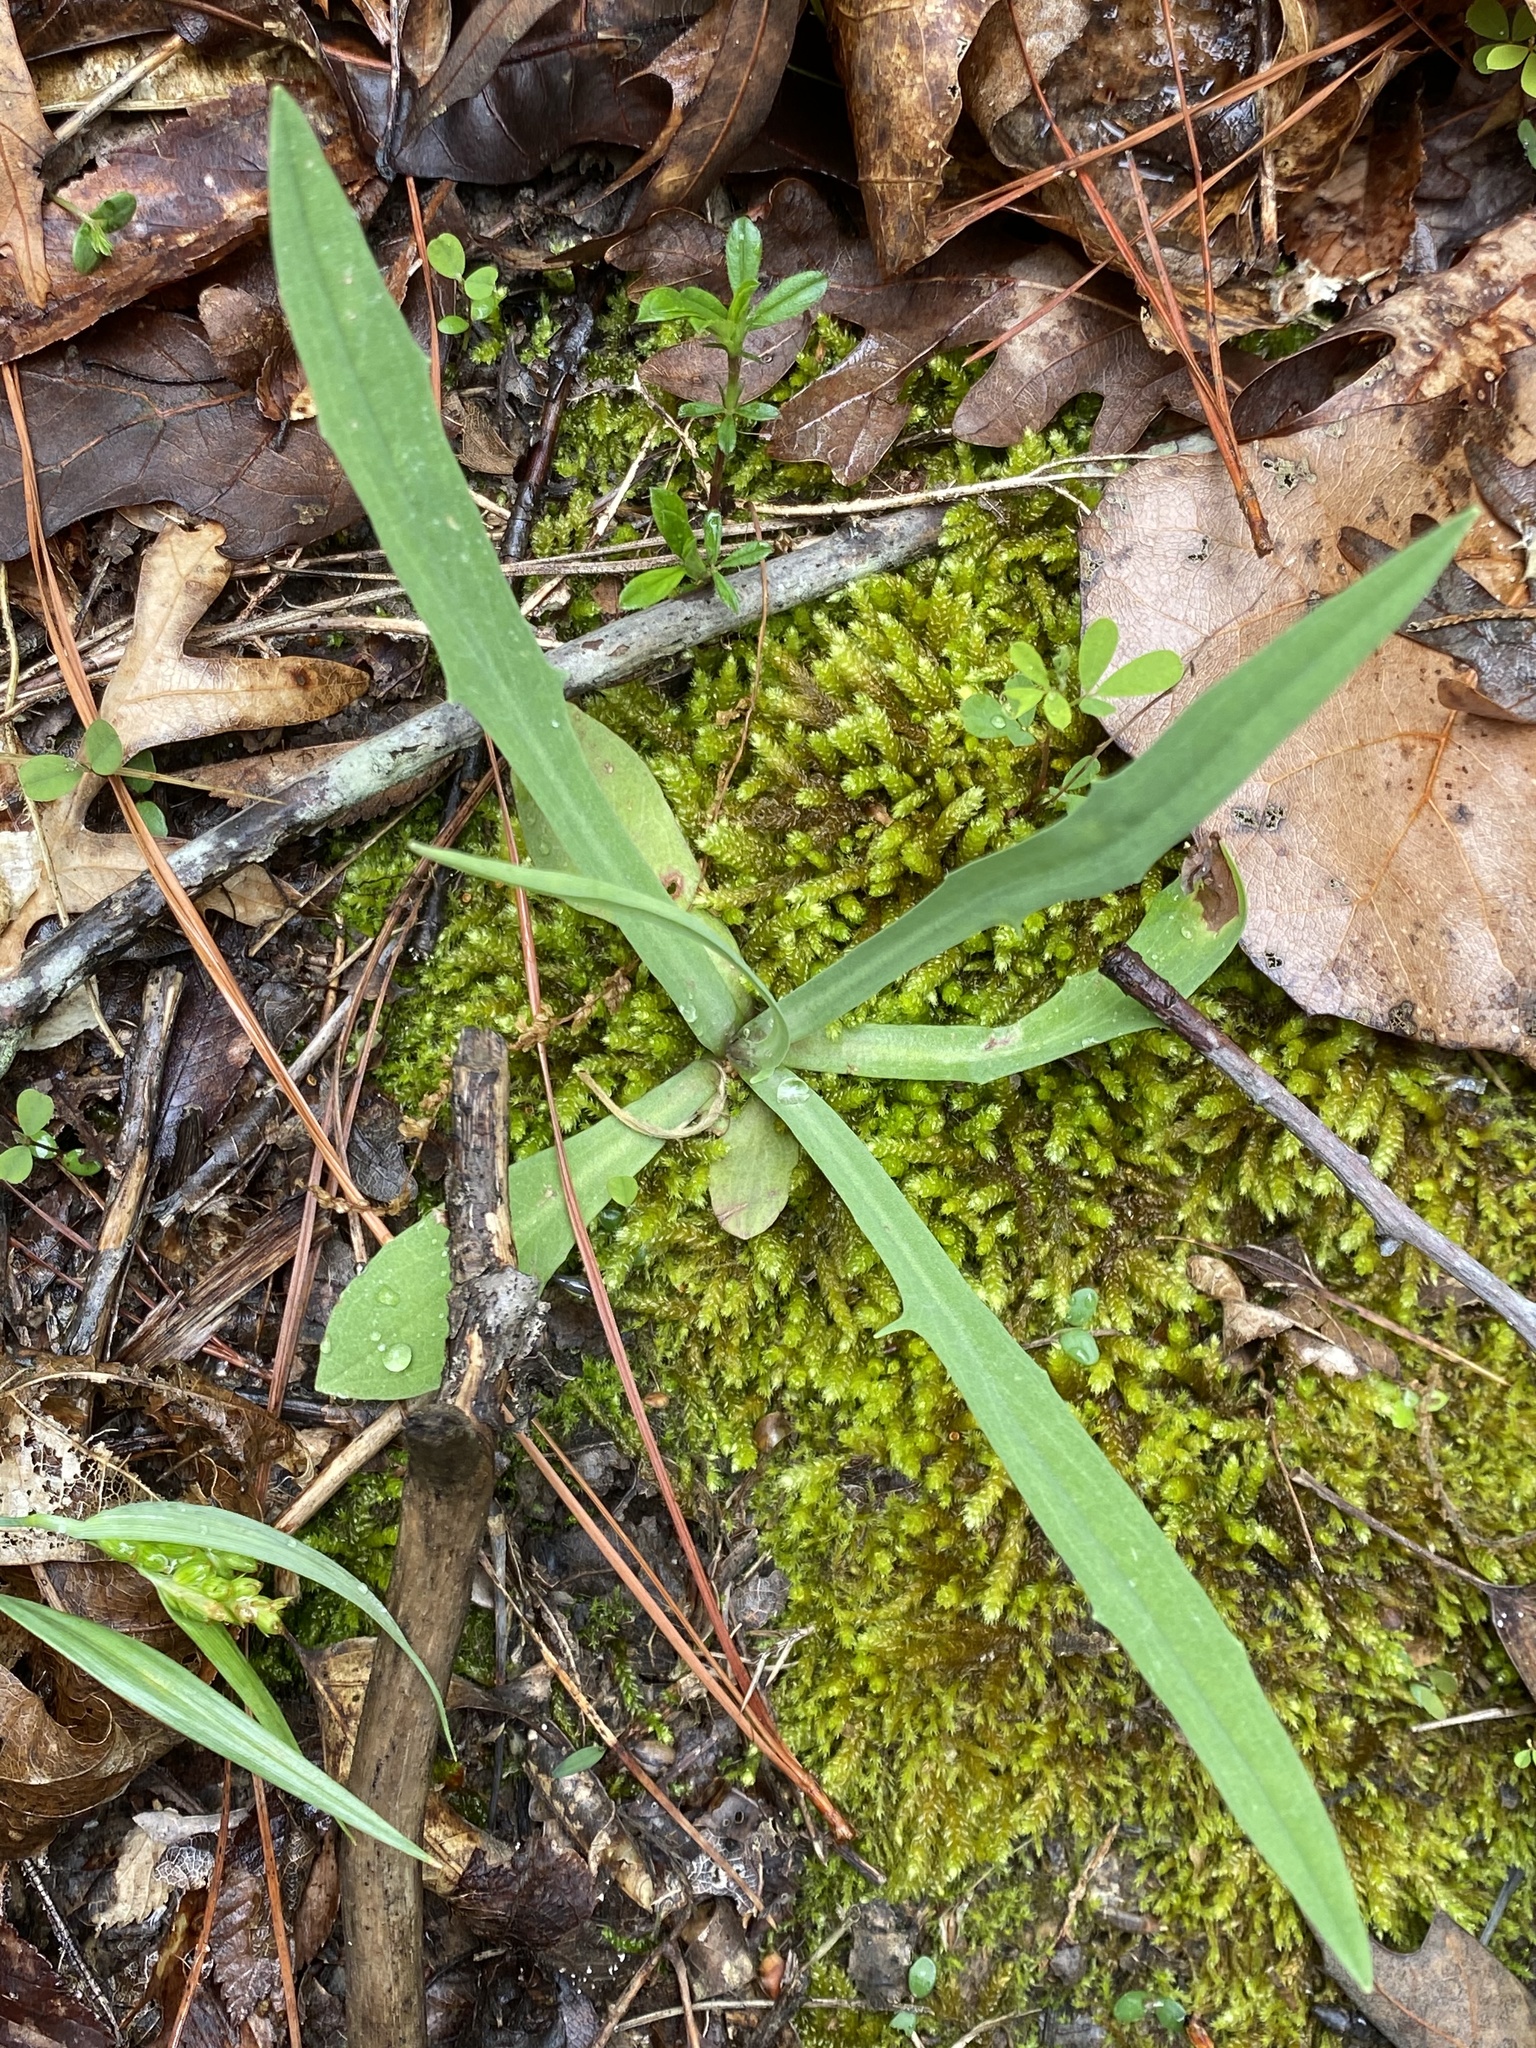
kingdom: Plantae
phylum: Tracheophyta
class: Magnoliopsida
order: Asterales
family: Asteraceae
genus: Krigia
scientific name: Krigia dandelion
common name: Colonial dwarf-dandelion
